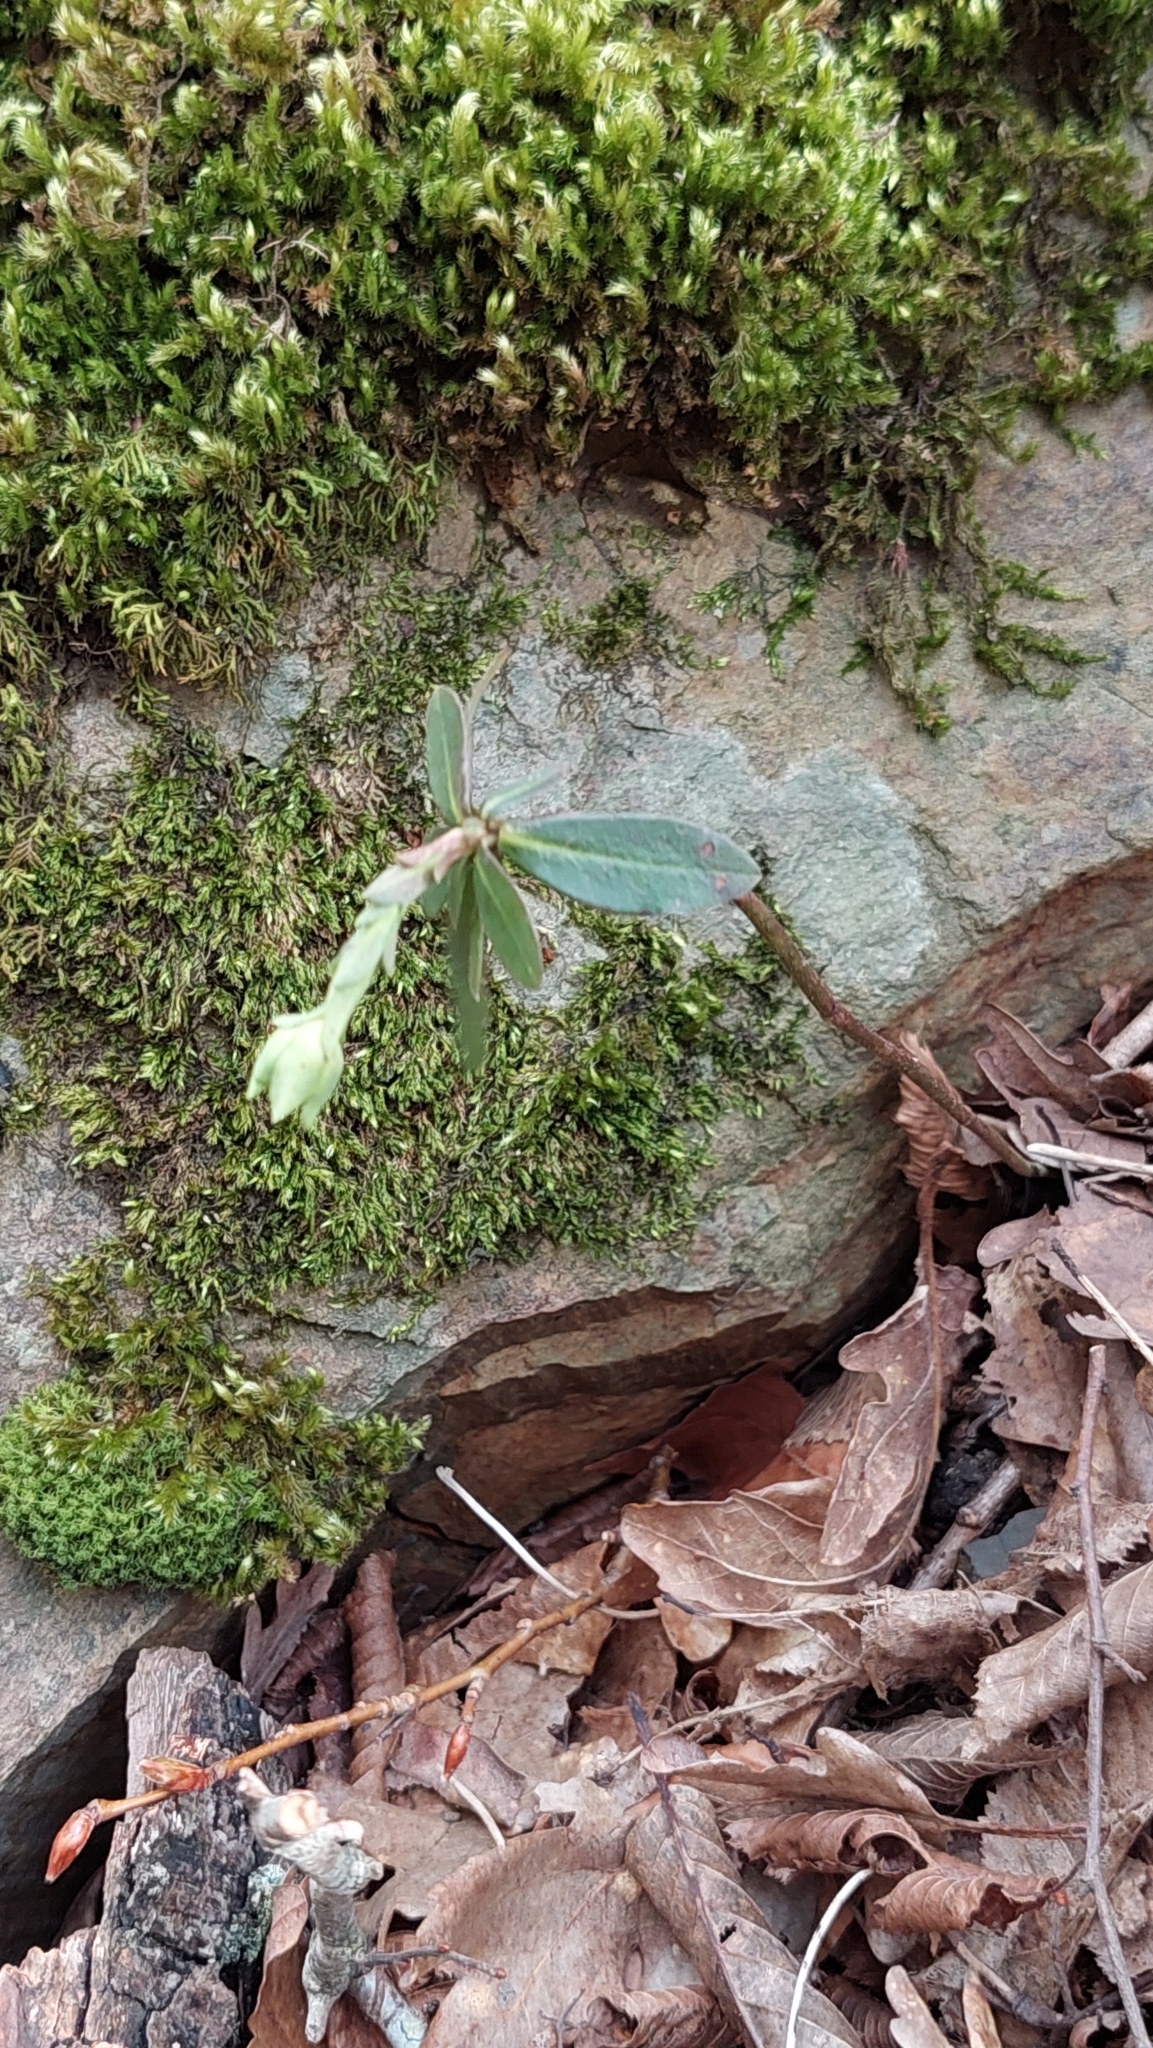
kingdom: Plantae
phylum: Tracheophyta
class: Magnoliopsida
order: Malpighiales
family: Euphorbiaceae
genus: Euphorbia
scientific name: Euphorbia amygdaloides
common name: Wood spurge
